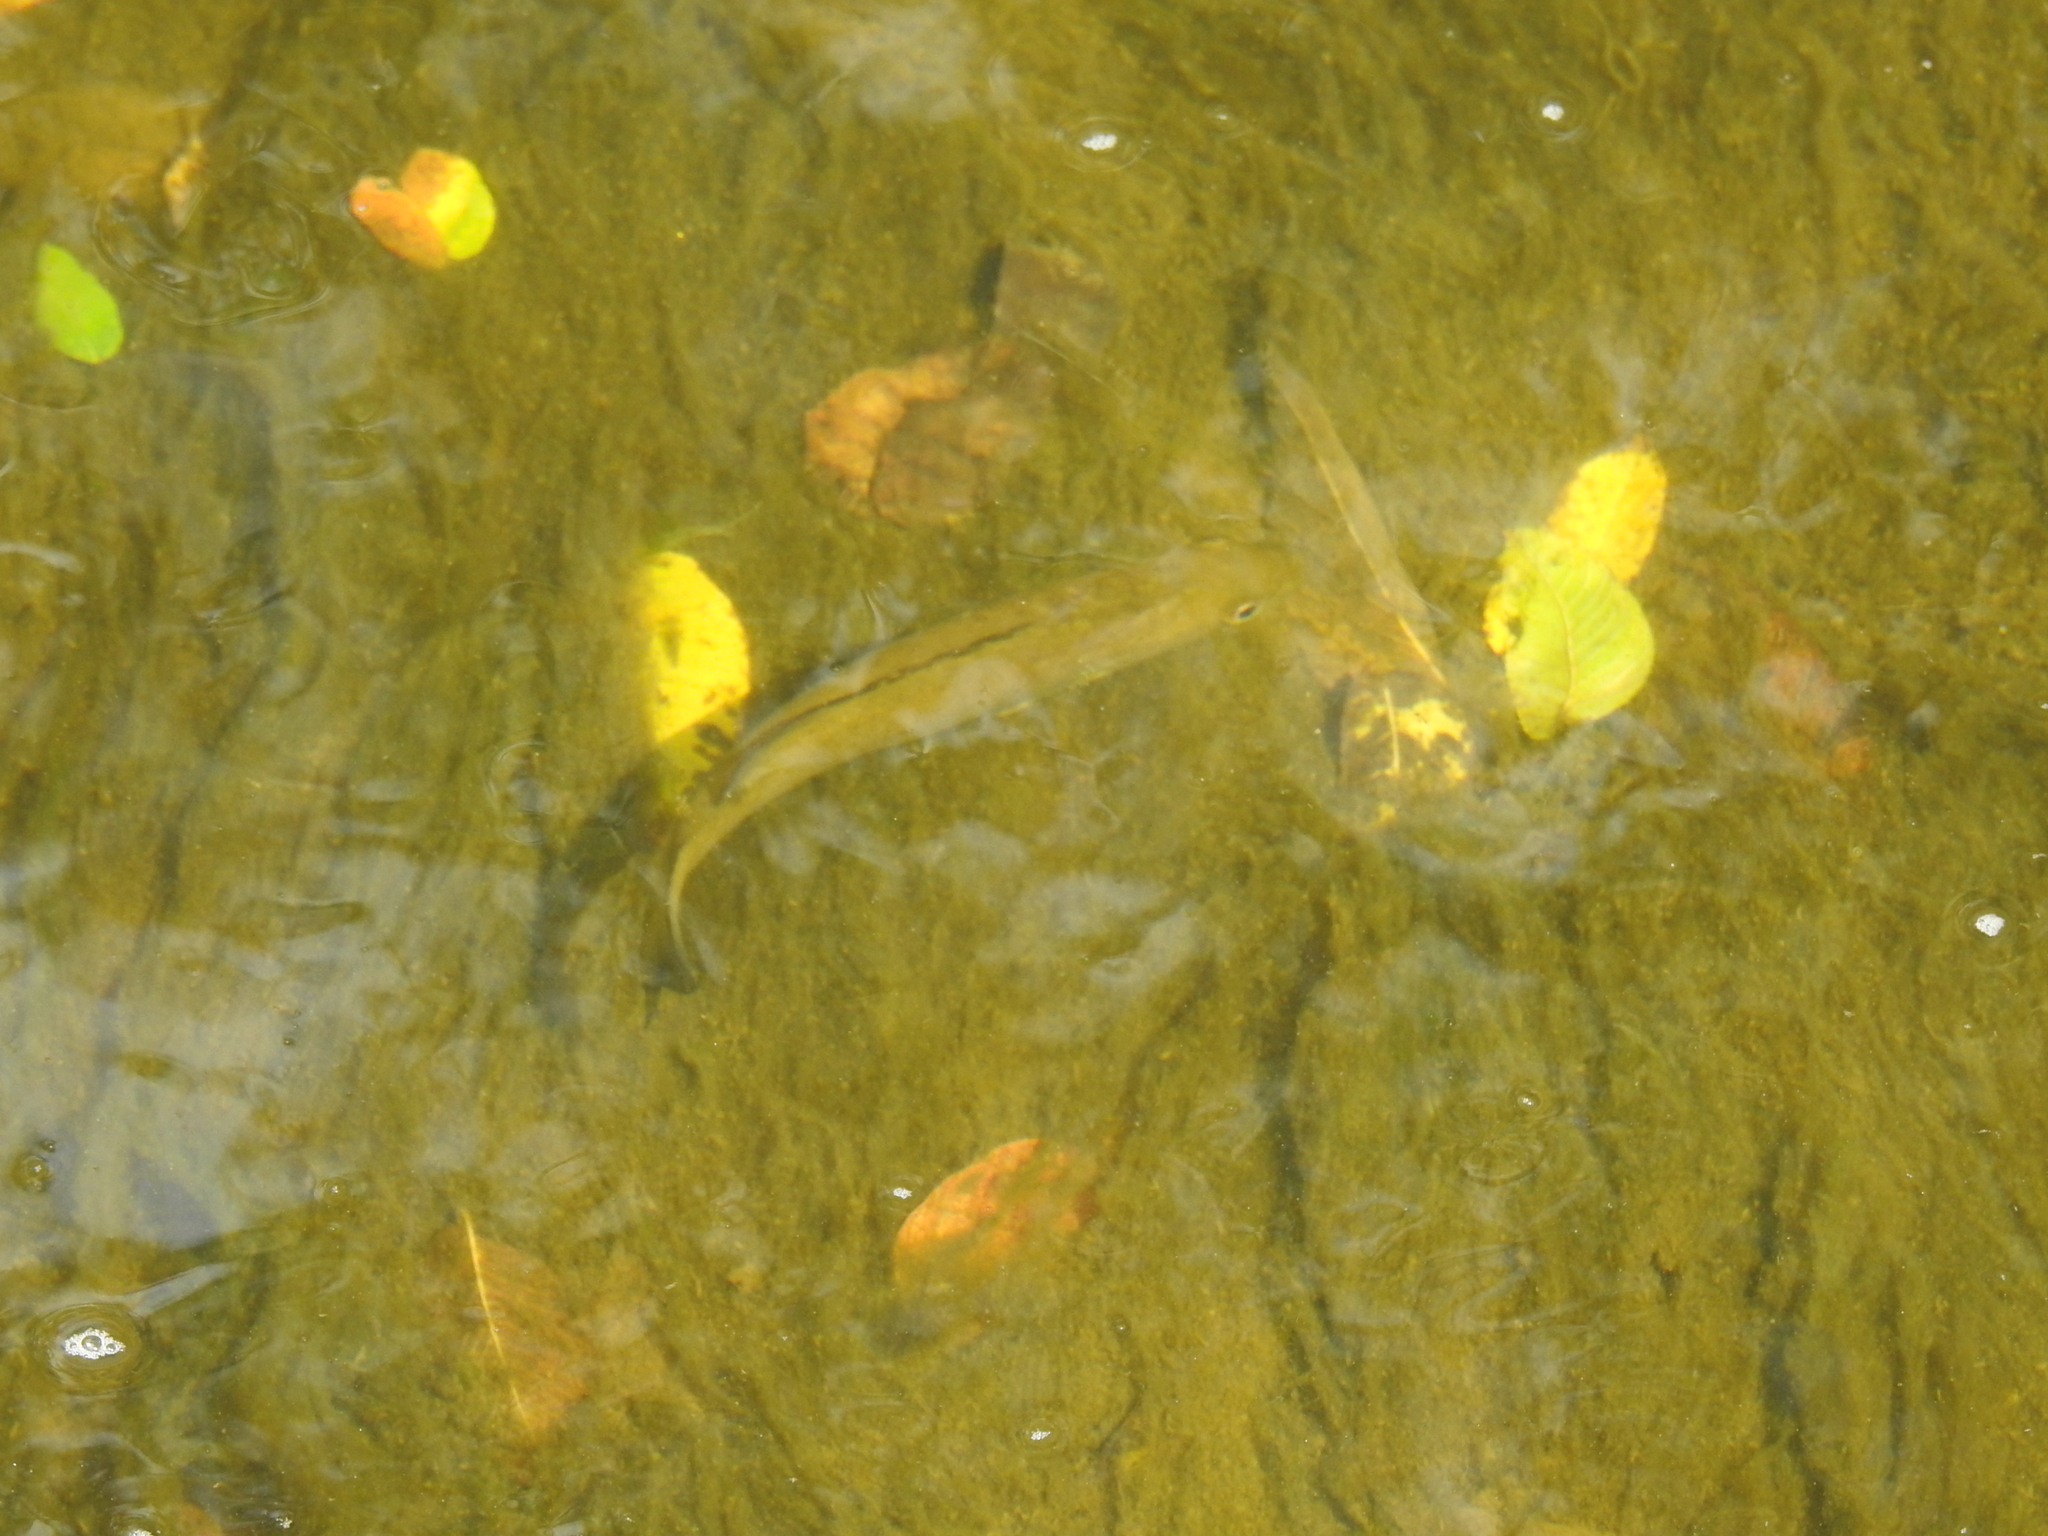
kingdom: Animalia
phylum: Chordata
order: Perciformes
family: Centrarchidae
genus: Micropterus
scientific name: Micropterus dolomieu
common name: Smallmouth bass
